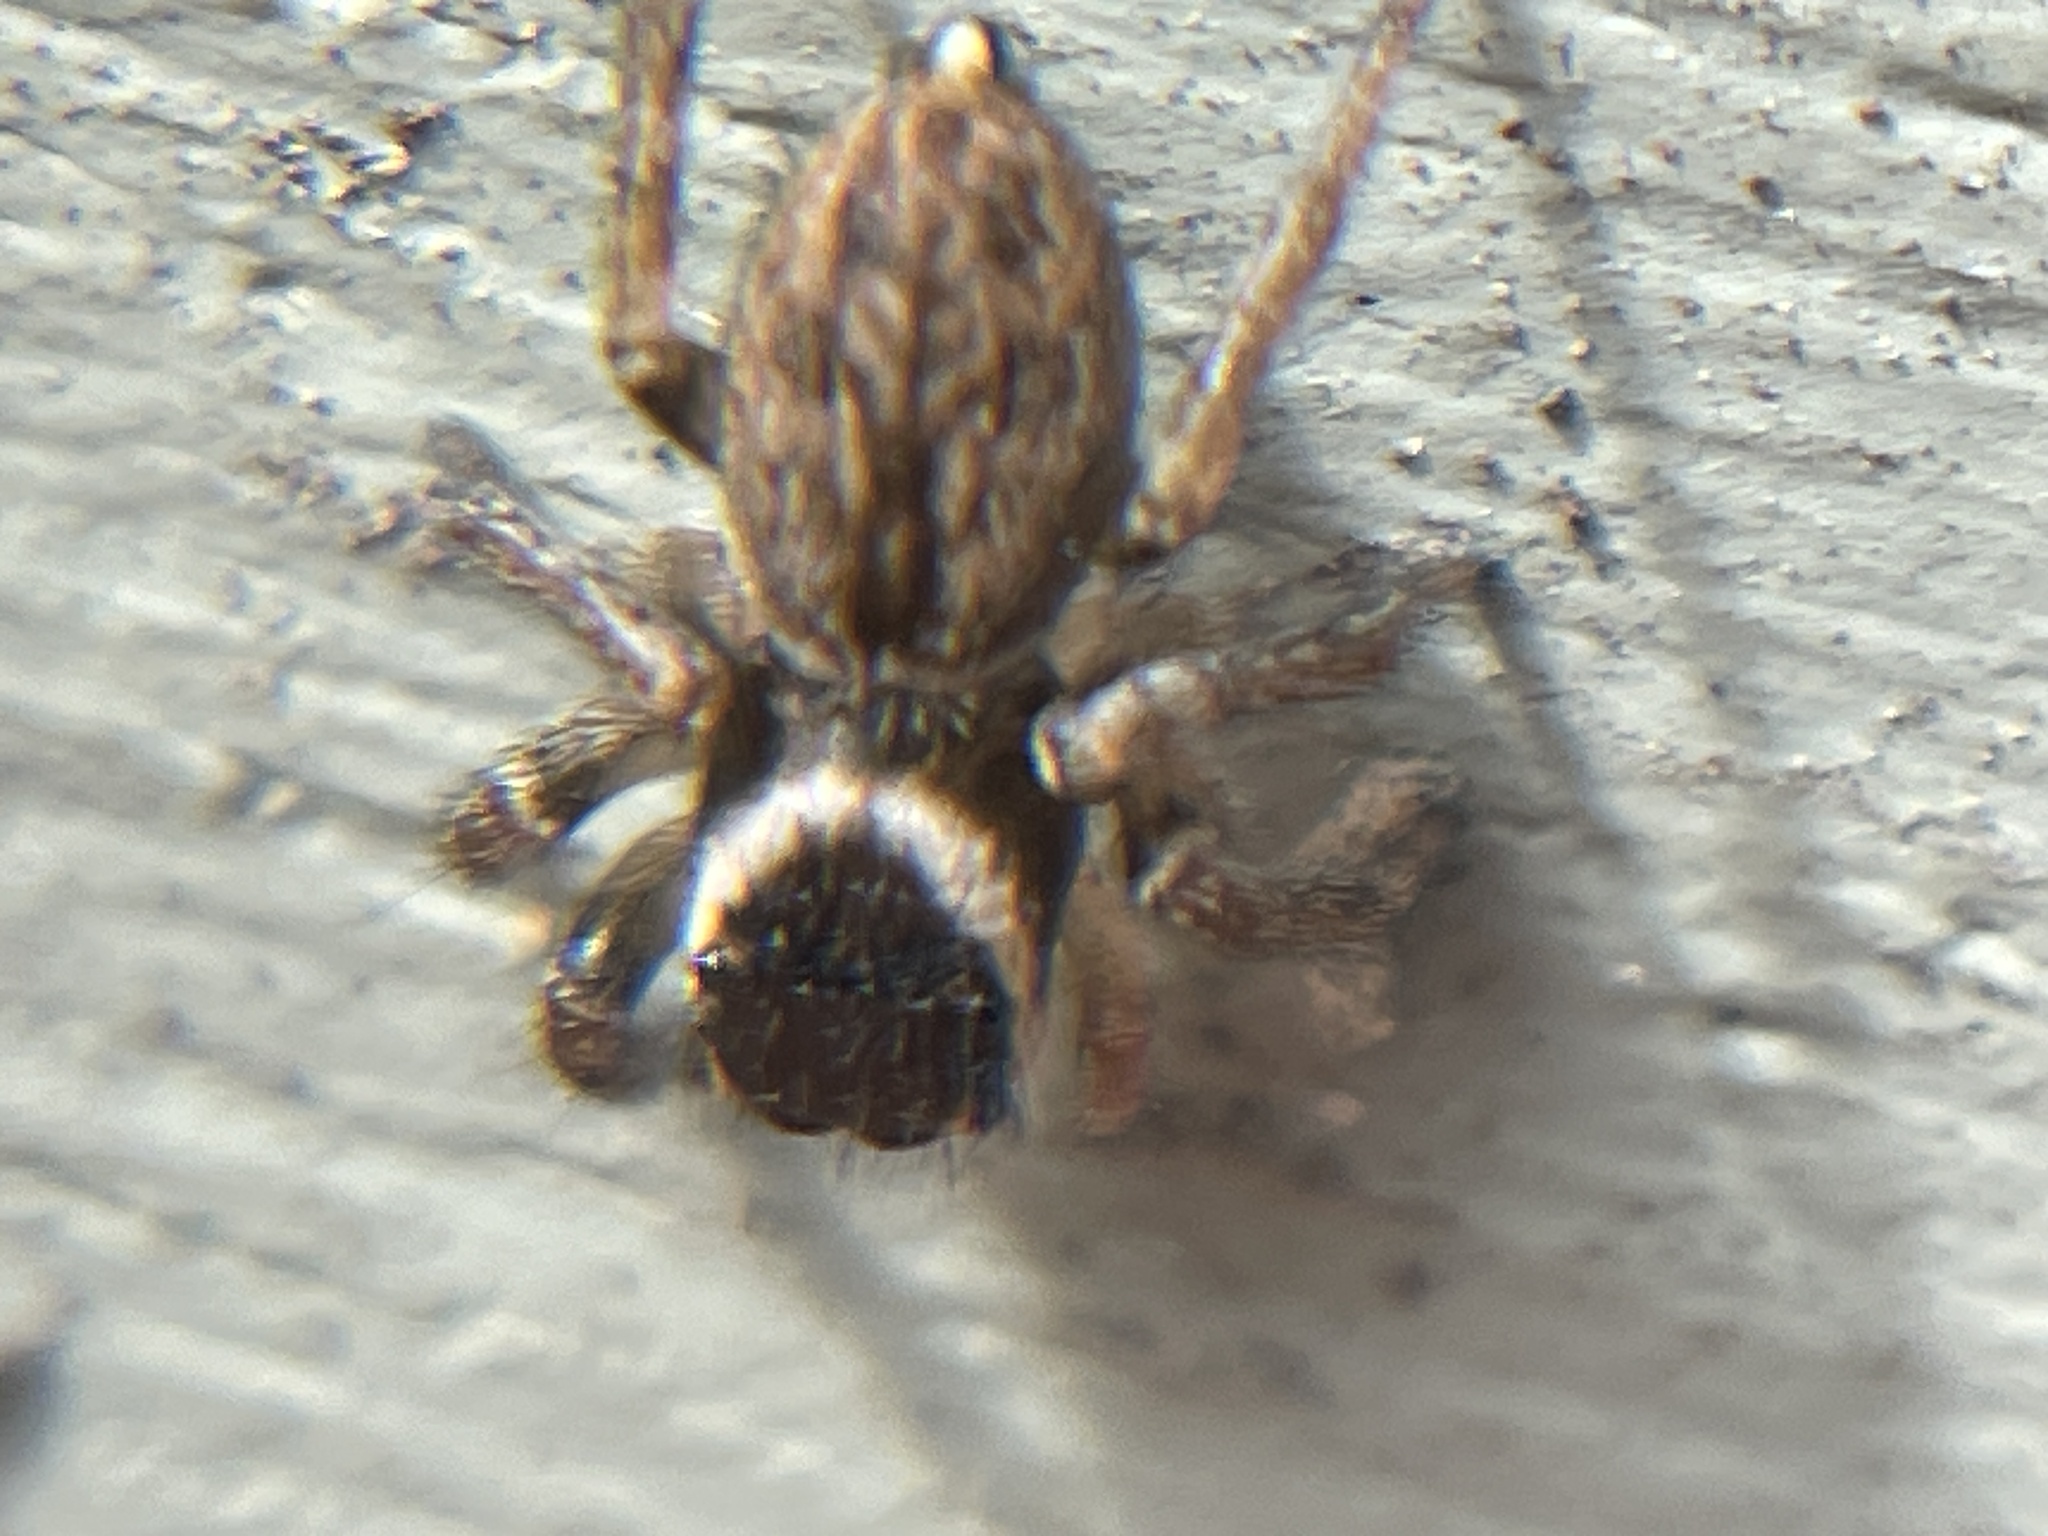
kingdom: Animalia
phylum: Arthropoda
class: Arachnida
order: Araneae
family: Salticidae
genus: Maratus
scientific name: Maratus griseus
